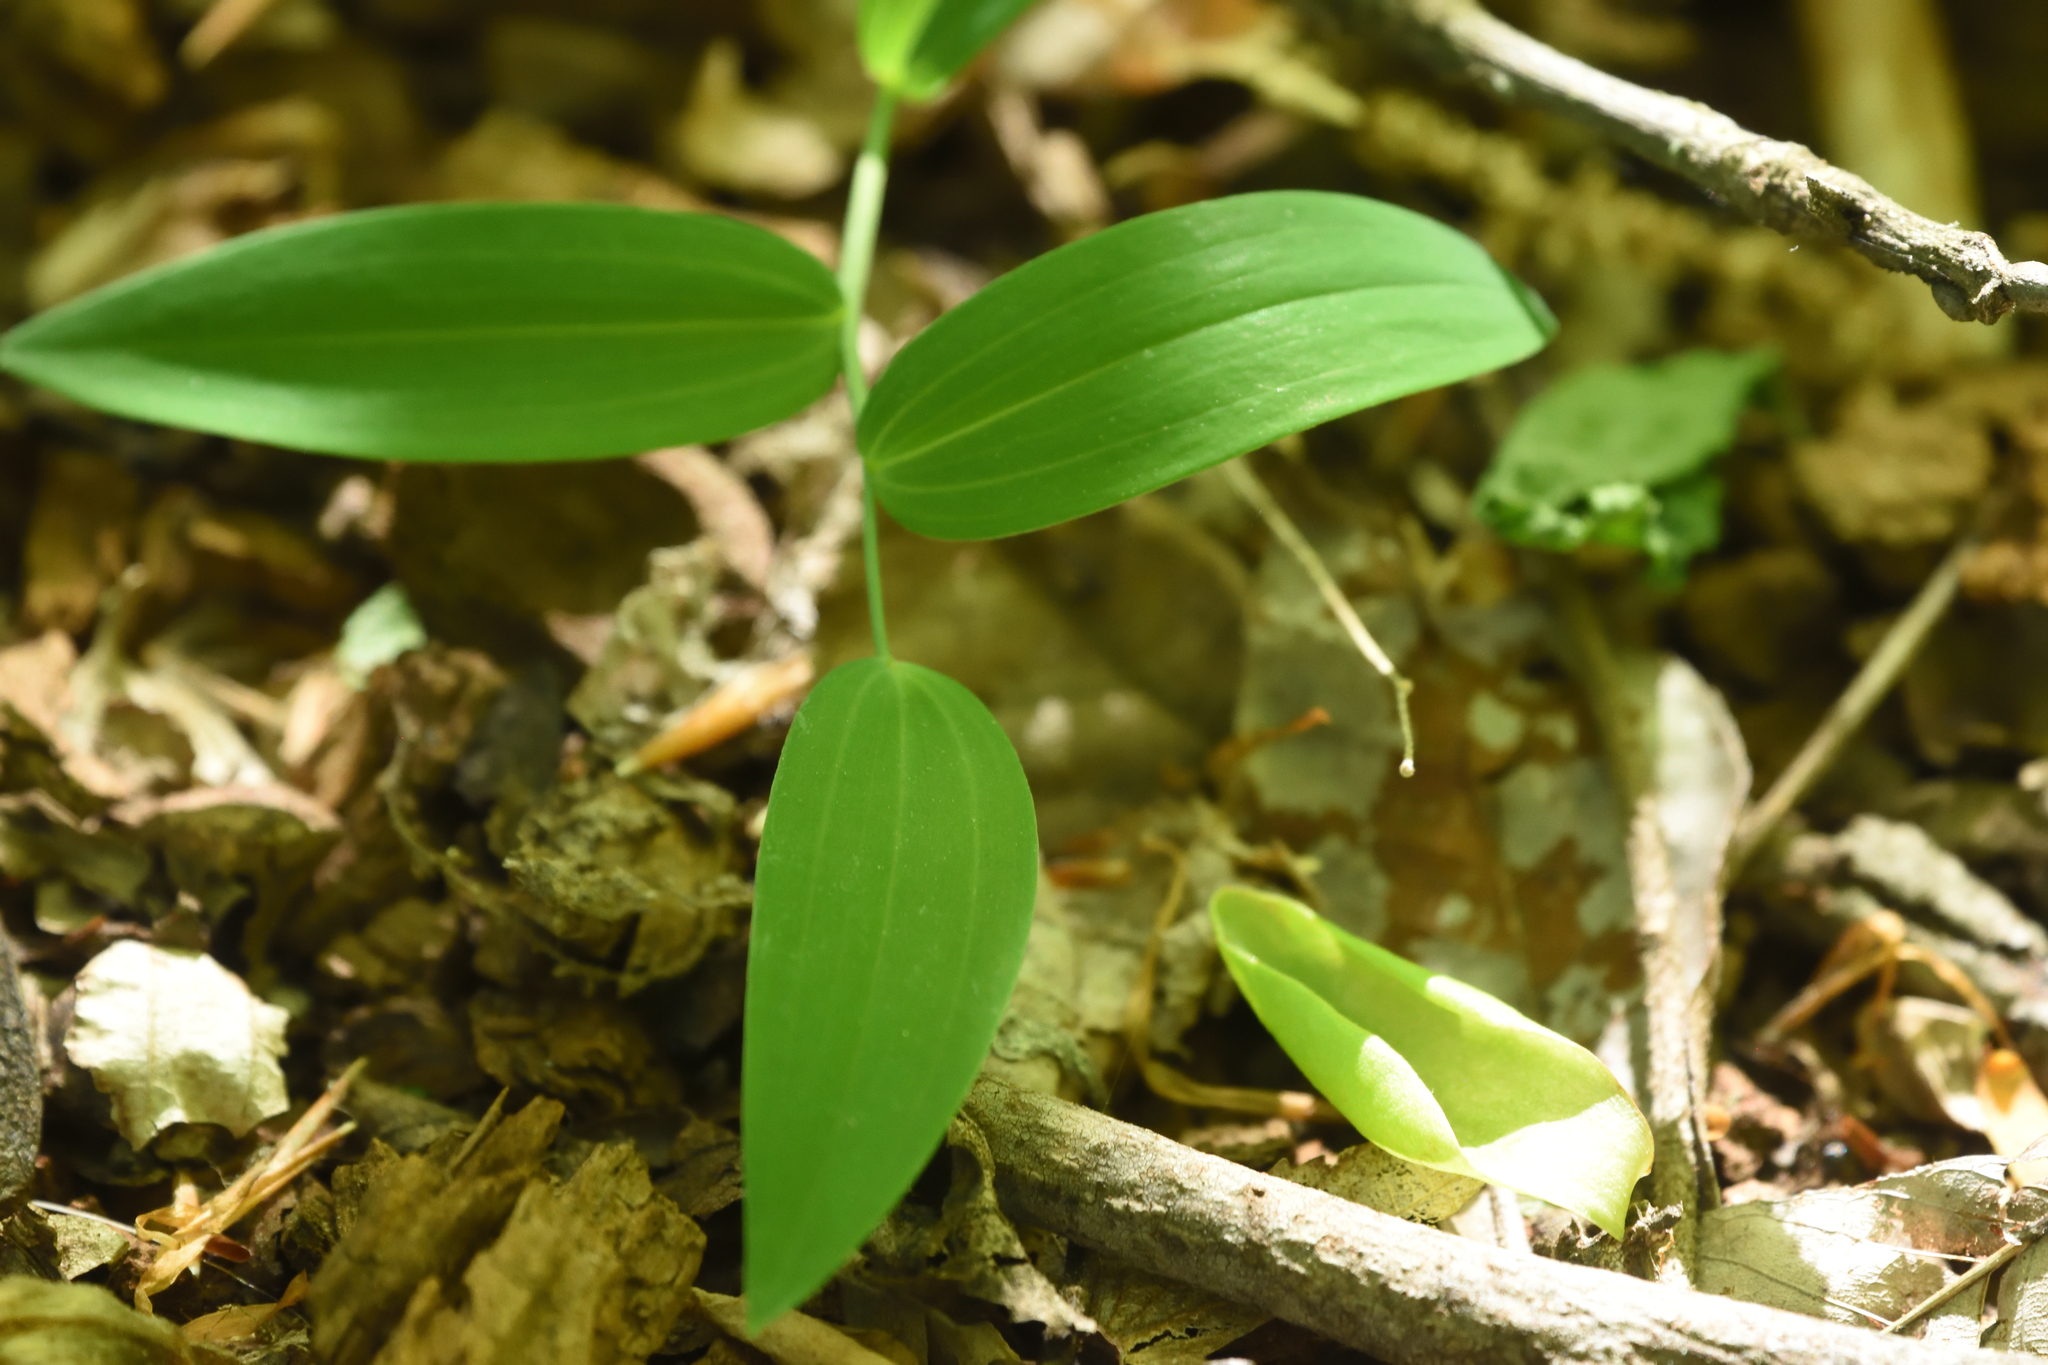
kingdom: Plantae
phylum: Tracheophyta
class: Liliopsida
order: Asparagales
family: Asparagaceae
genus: Polygonatum
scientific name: Polygonatum biflorum
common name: American solomon's-seal
